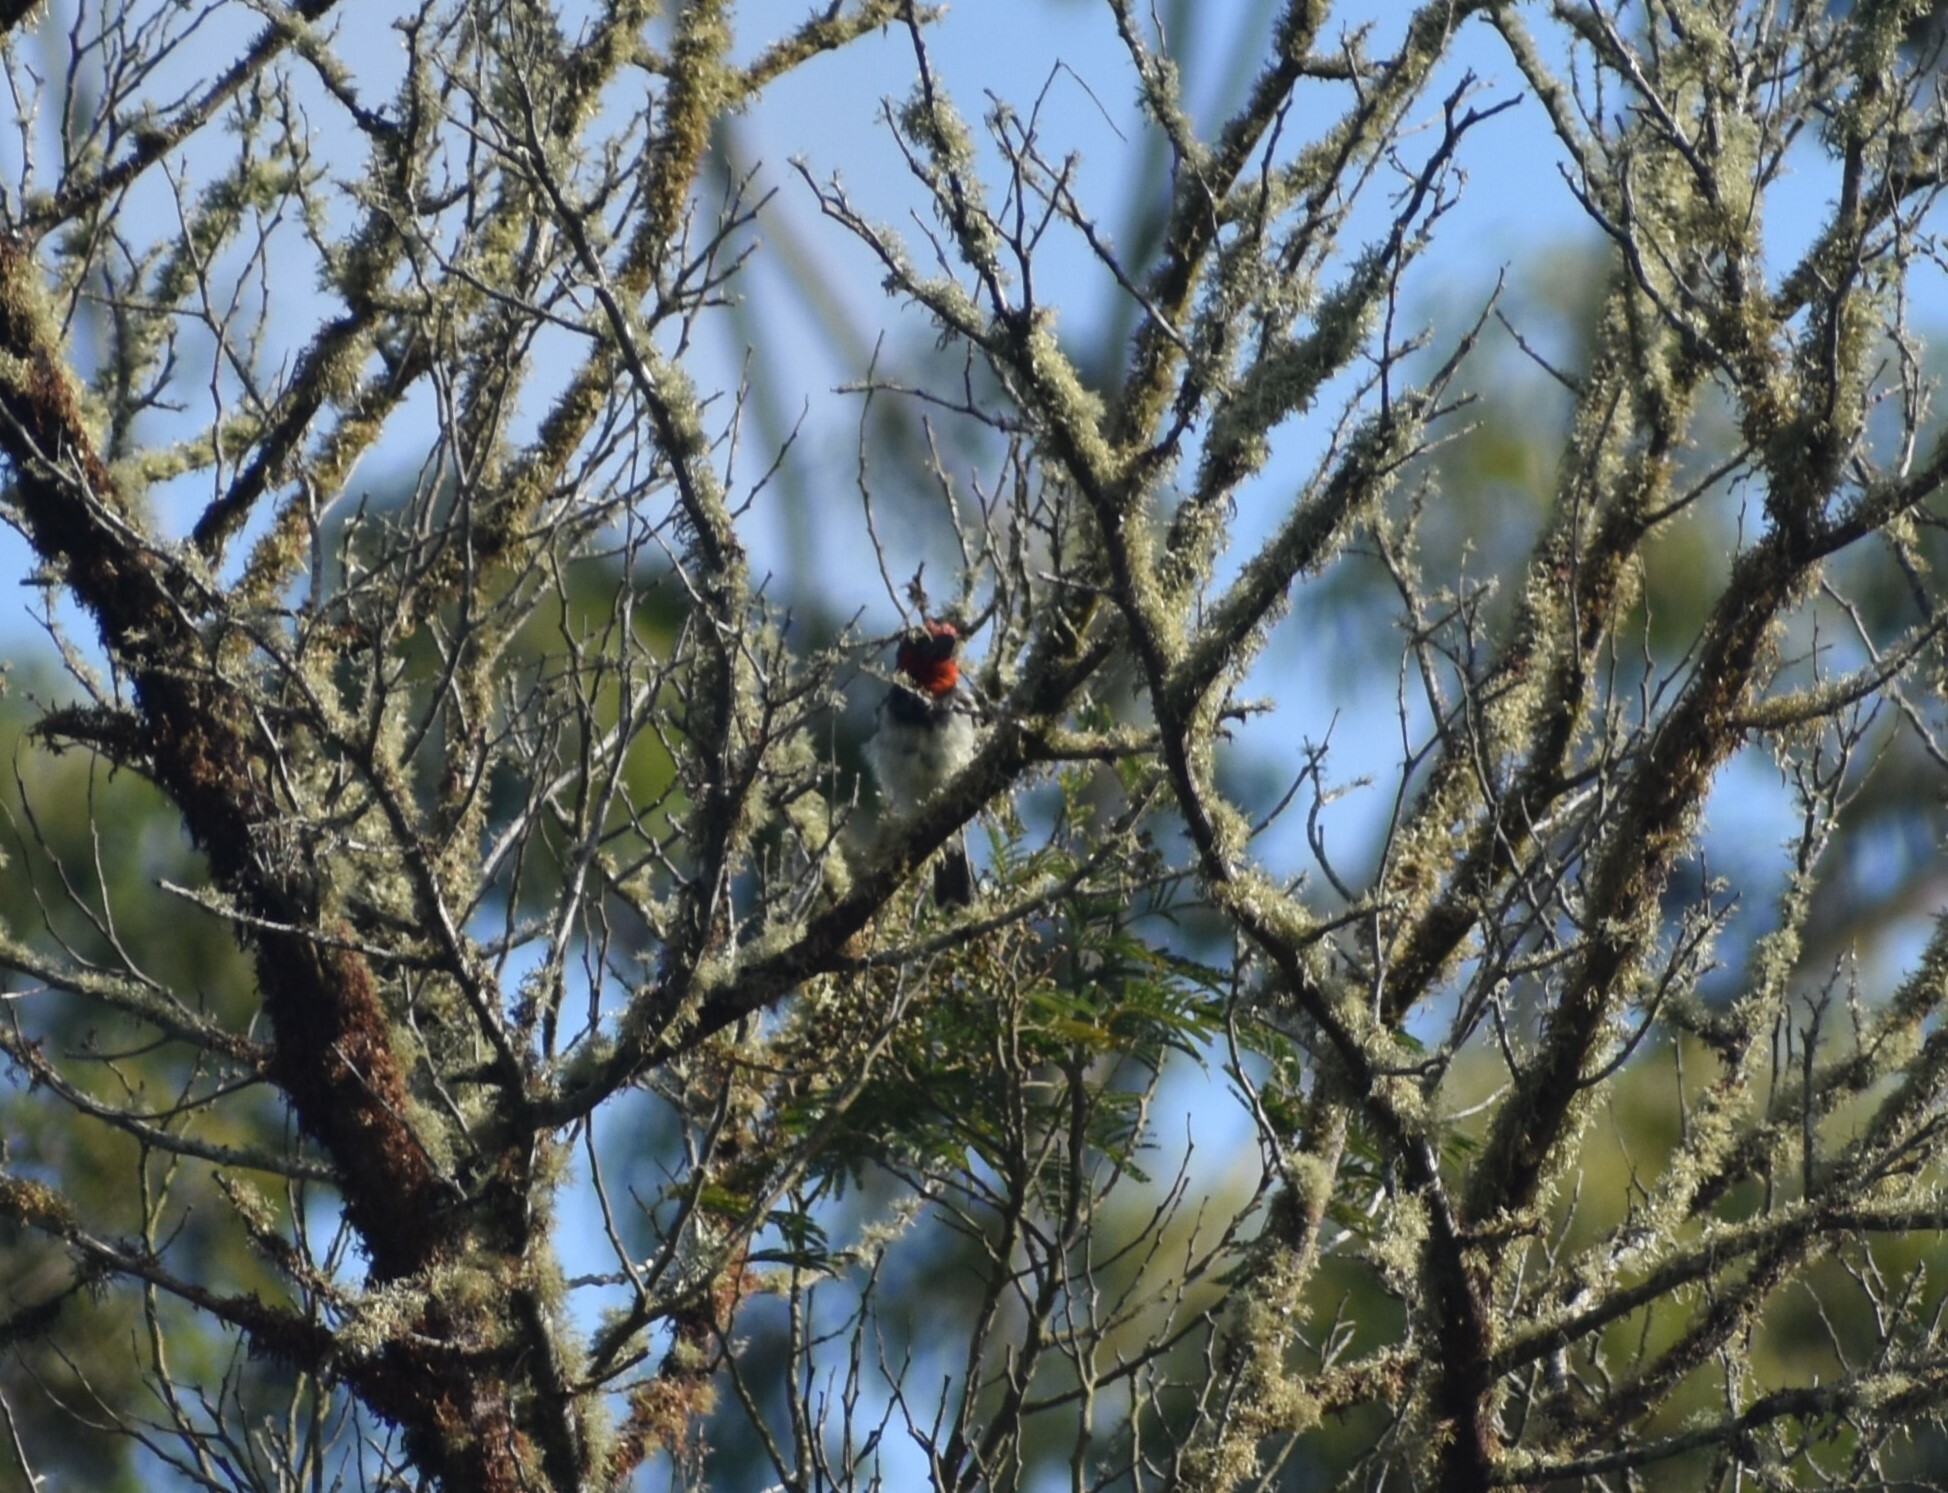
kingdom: Animalia
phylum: Chordata
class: Aves
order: Piciformes
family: Lybiidae
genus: Lybius
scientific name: Lybius torquatus
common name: Black-collared barbet
